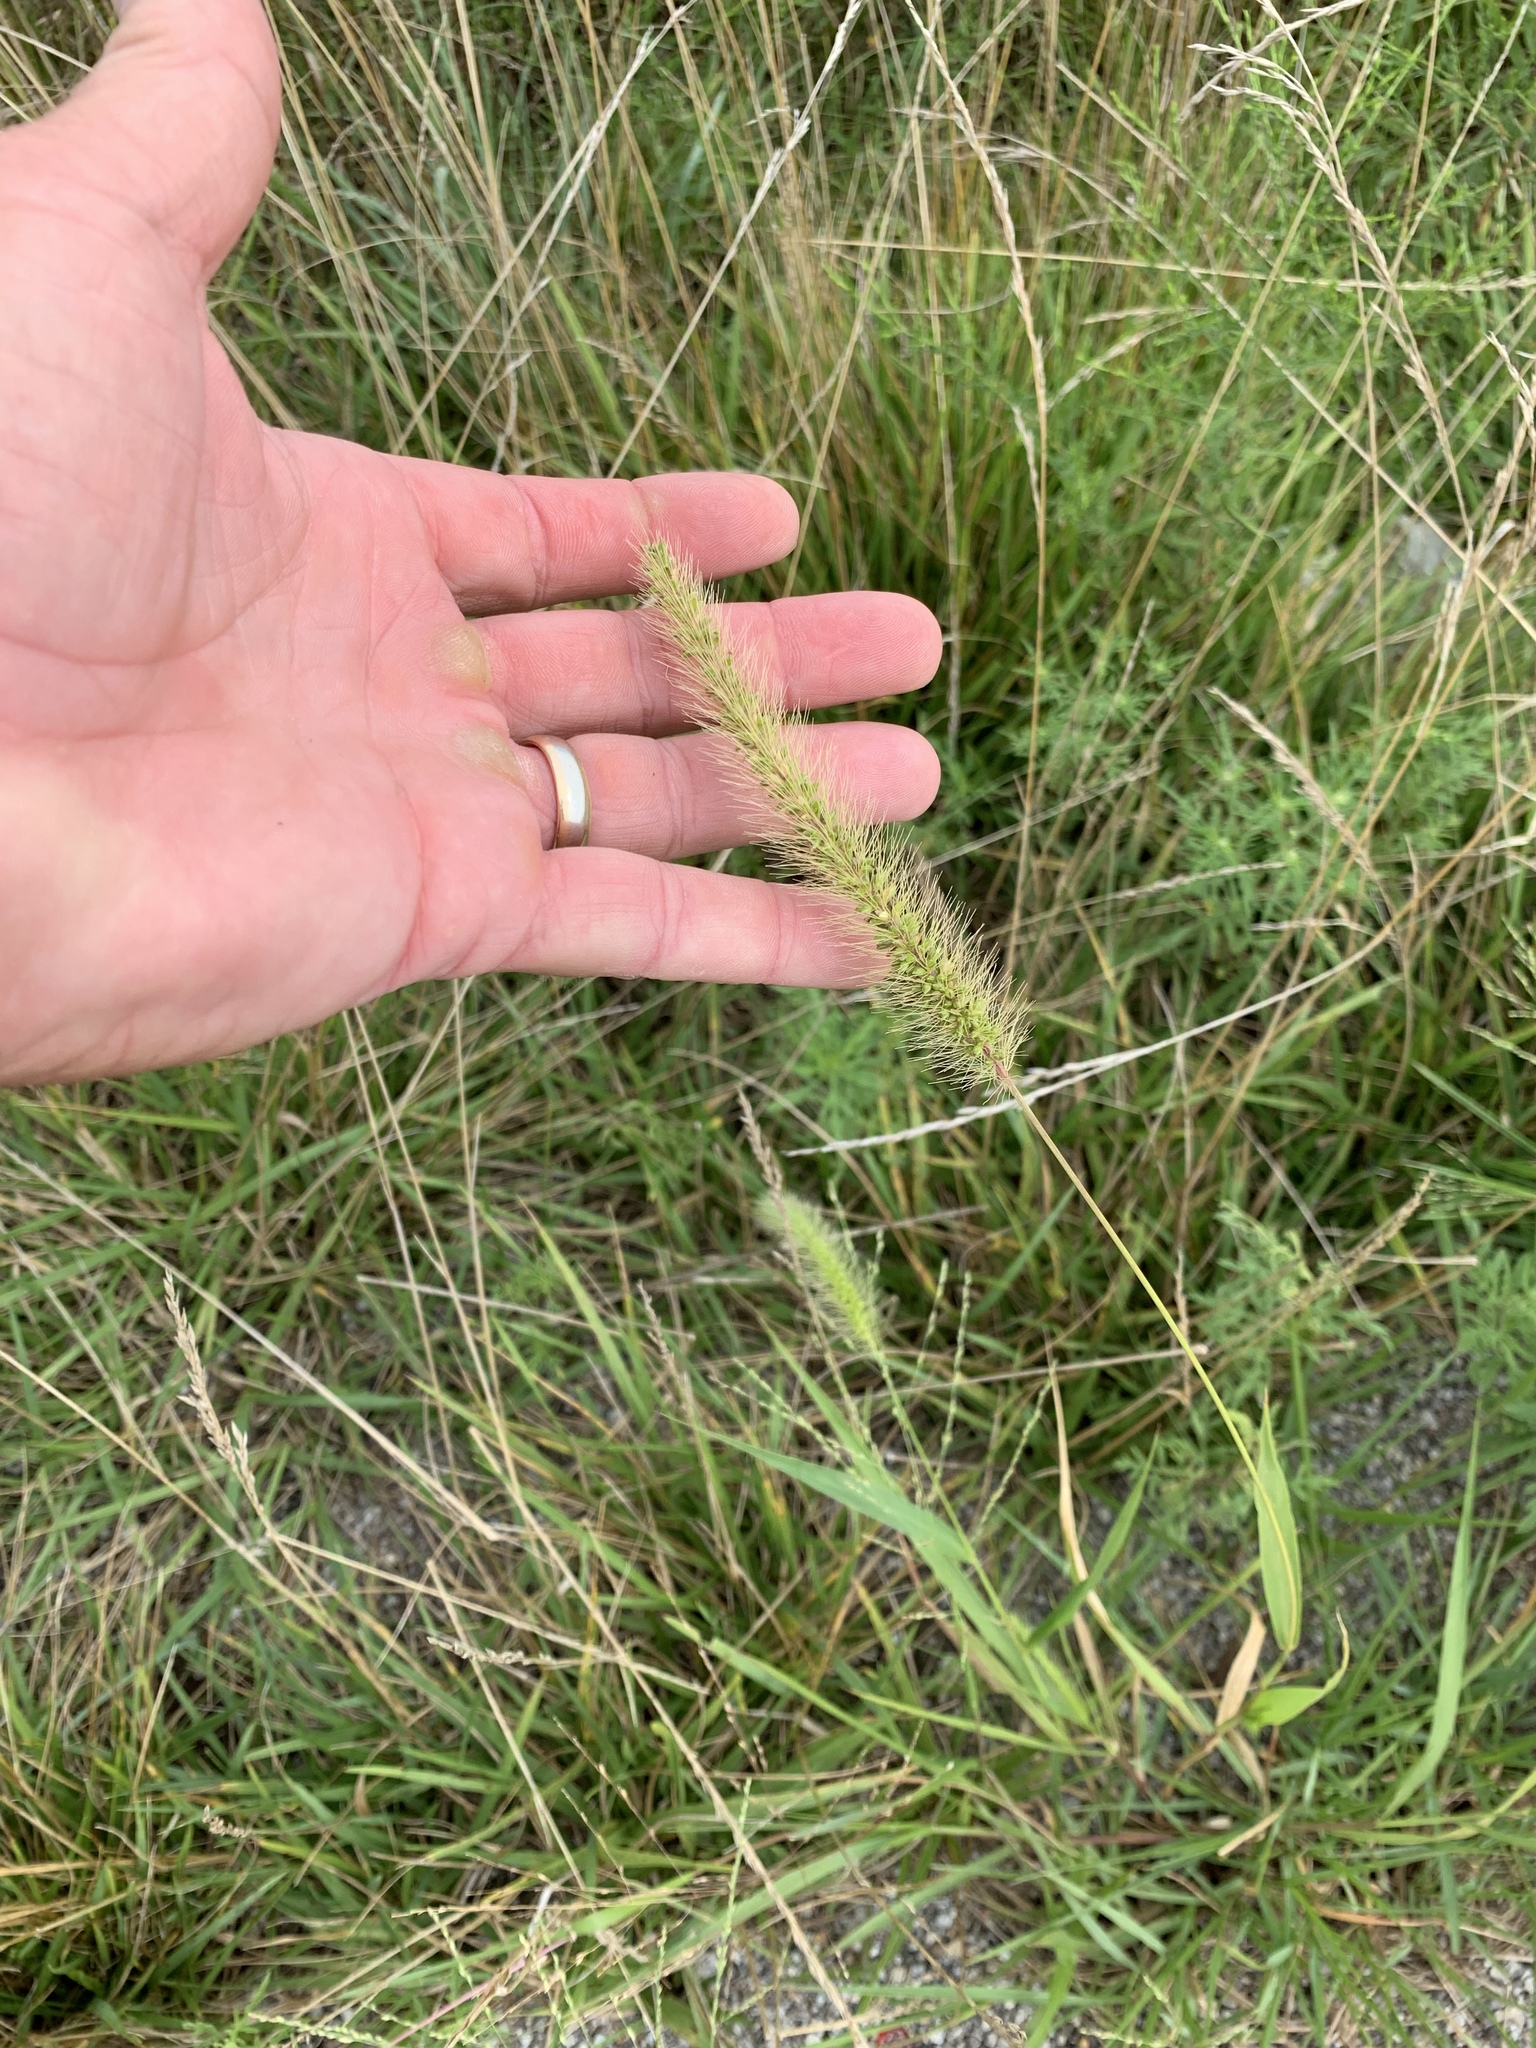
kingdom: Plantae
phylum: Tracheophyta
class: Liliopsida
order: Poales
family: Poaceae
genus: Setaria
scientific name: Setaria viridis
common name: Green bristlegrass
